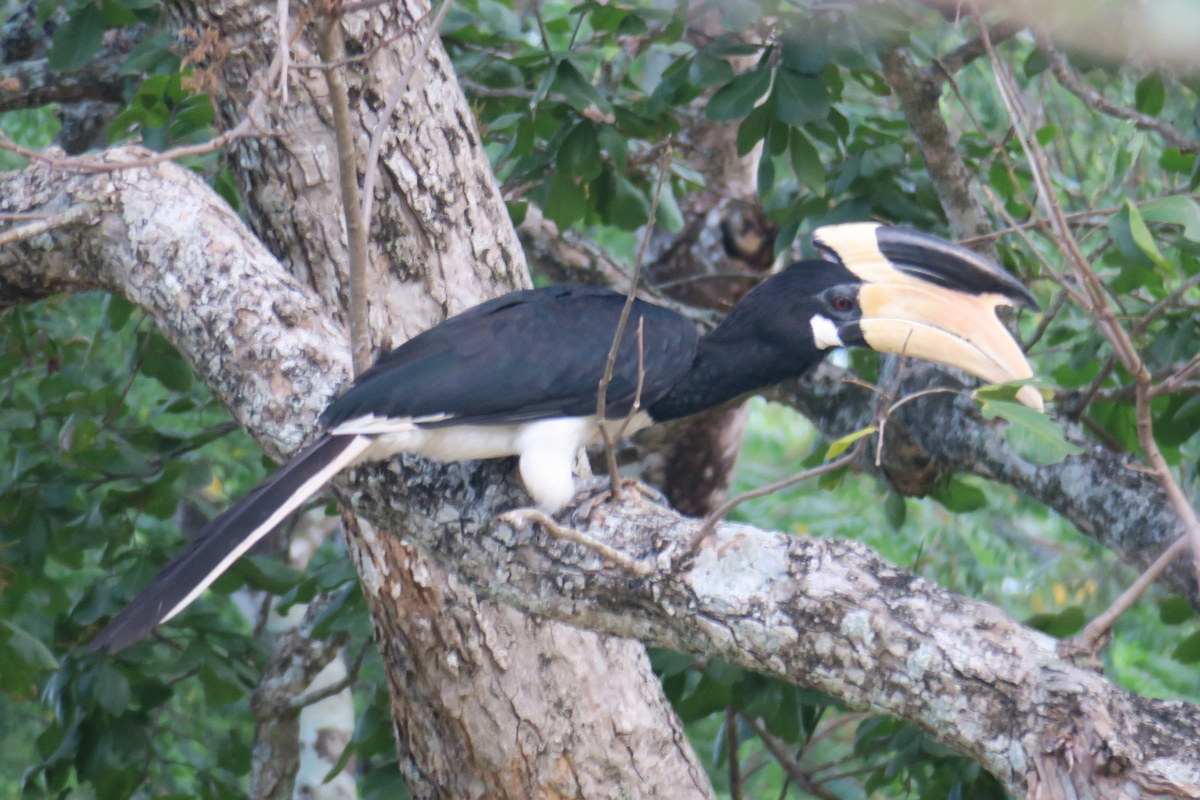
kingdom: Animalia
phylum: Chordata
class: Aves
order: Bucerotiformes
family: Bucerotidae
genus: Anthracoceros
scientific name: Anthracoceros coronatus
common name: Malabar pied hornbill
